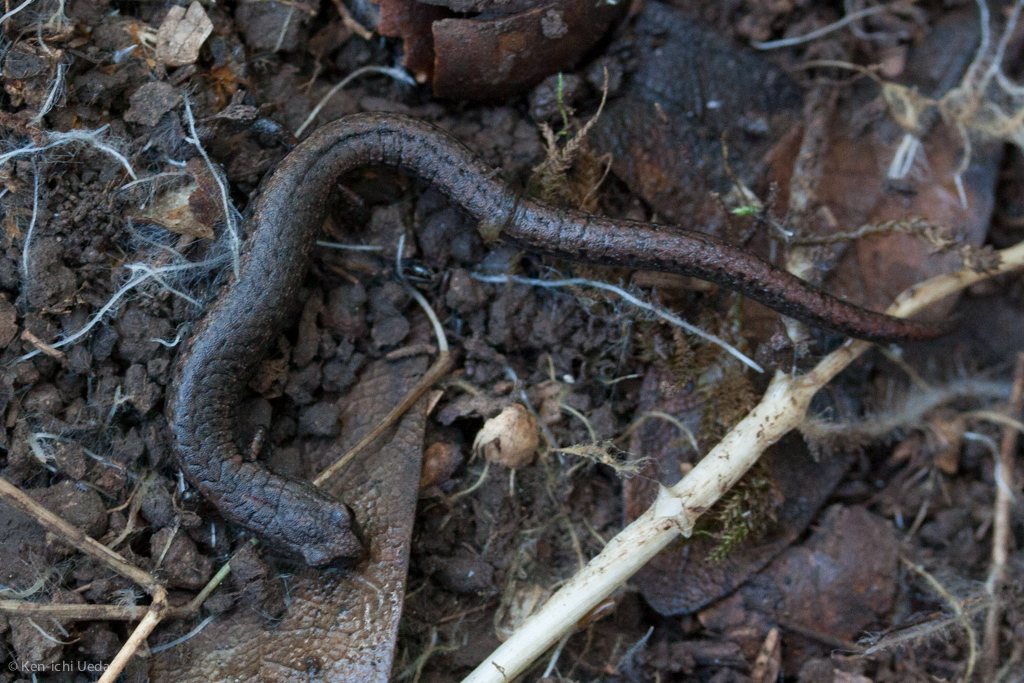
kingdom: Animalia
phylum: Chordata
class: Amphibia
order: Caudata
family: Plethodontidae
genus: Batrachoseps
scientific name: Batrachoseps attenuatus
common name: California slender salamander
